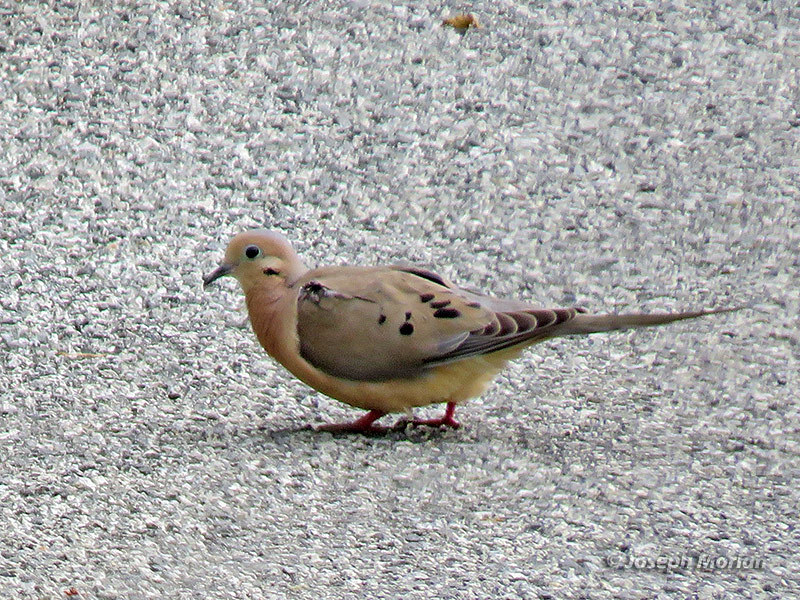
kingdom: Animalia
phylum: Chordata
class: Aves
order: Columbiformes
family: Columbidae
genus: Zenaida
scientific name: Zenaida macroura
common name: Mourning dove
